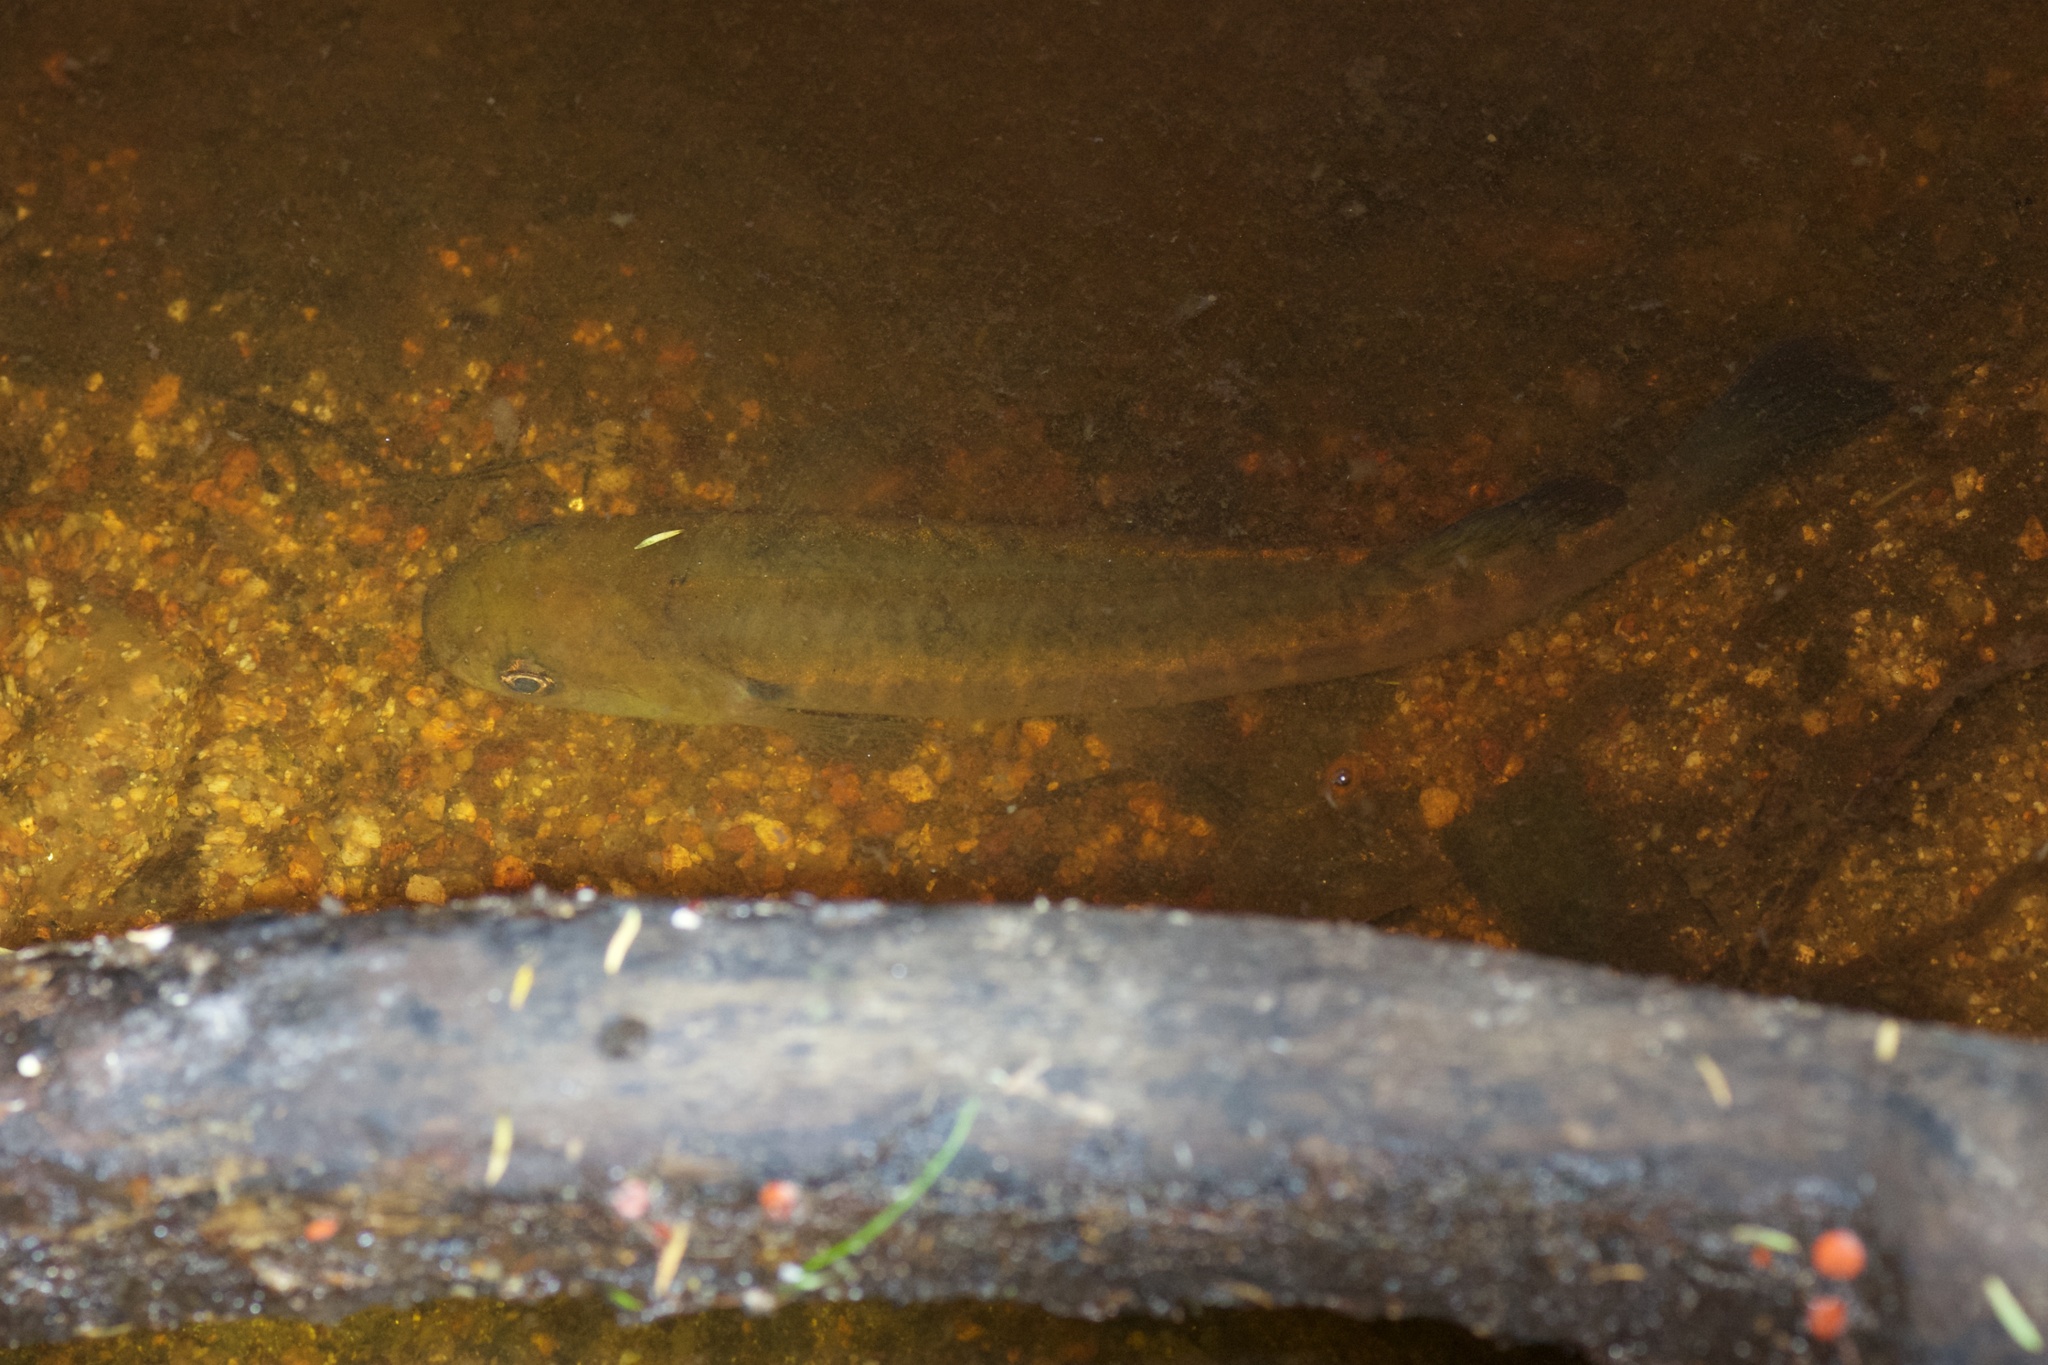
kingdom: Animalia
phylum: Chordata
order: Osmeriformes
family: Galaxiidae
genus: Galaxias
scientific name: Galaxias fasciatus
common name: Banded kokopu
